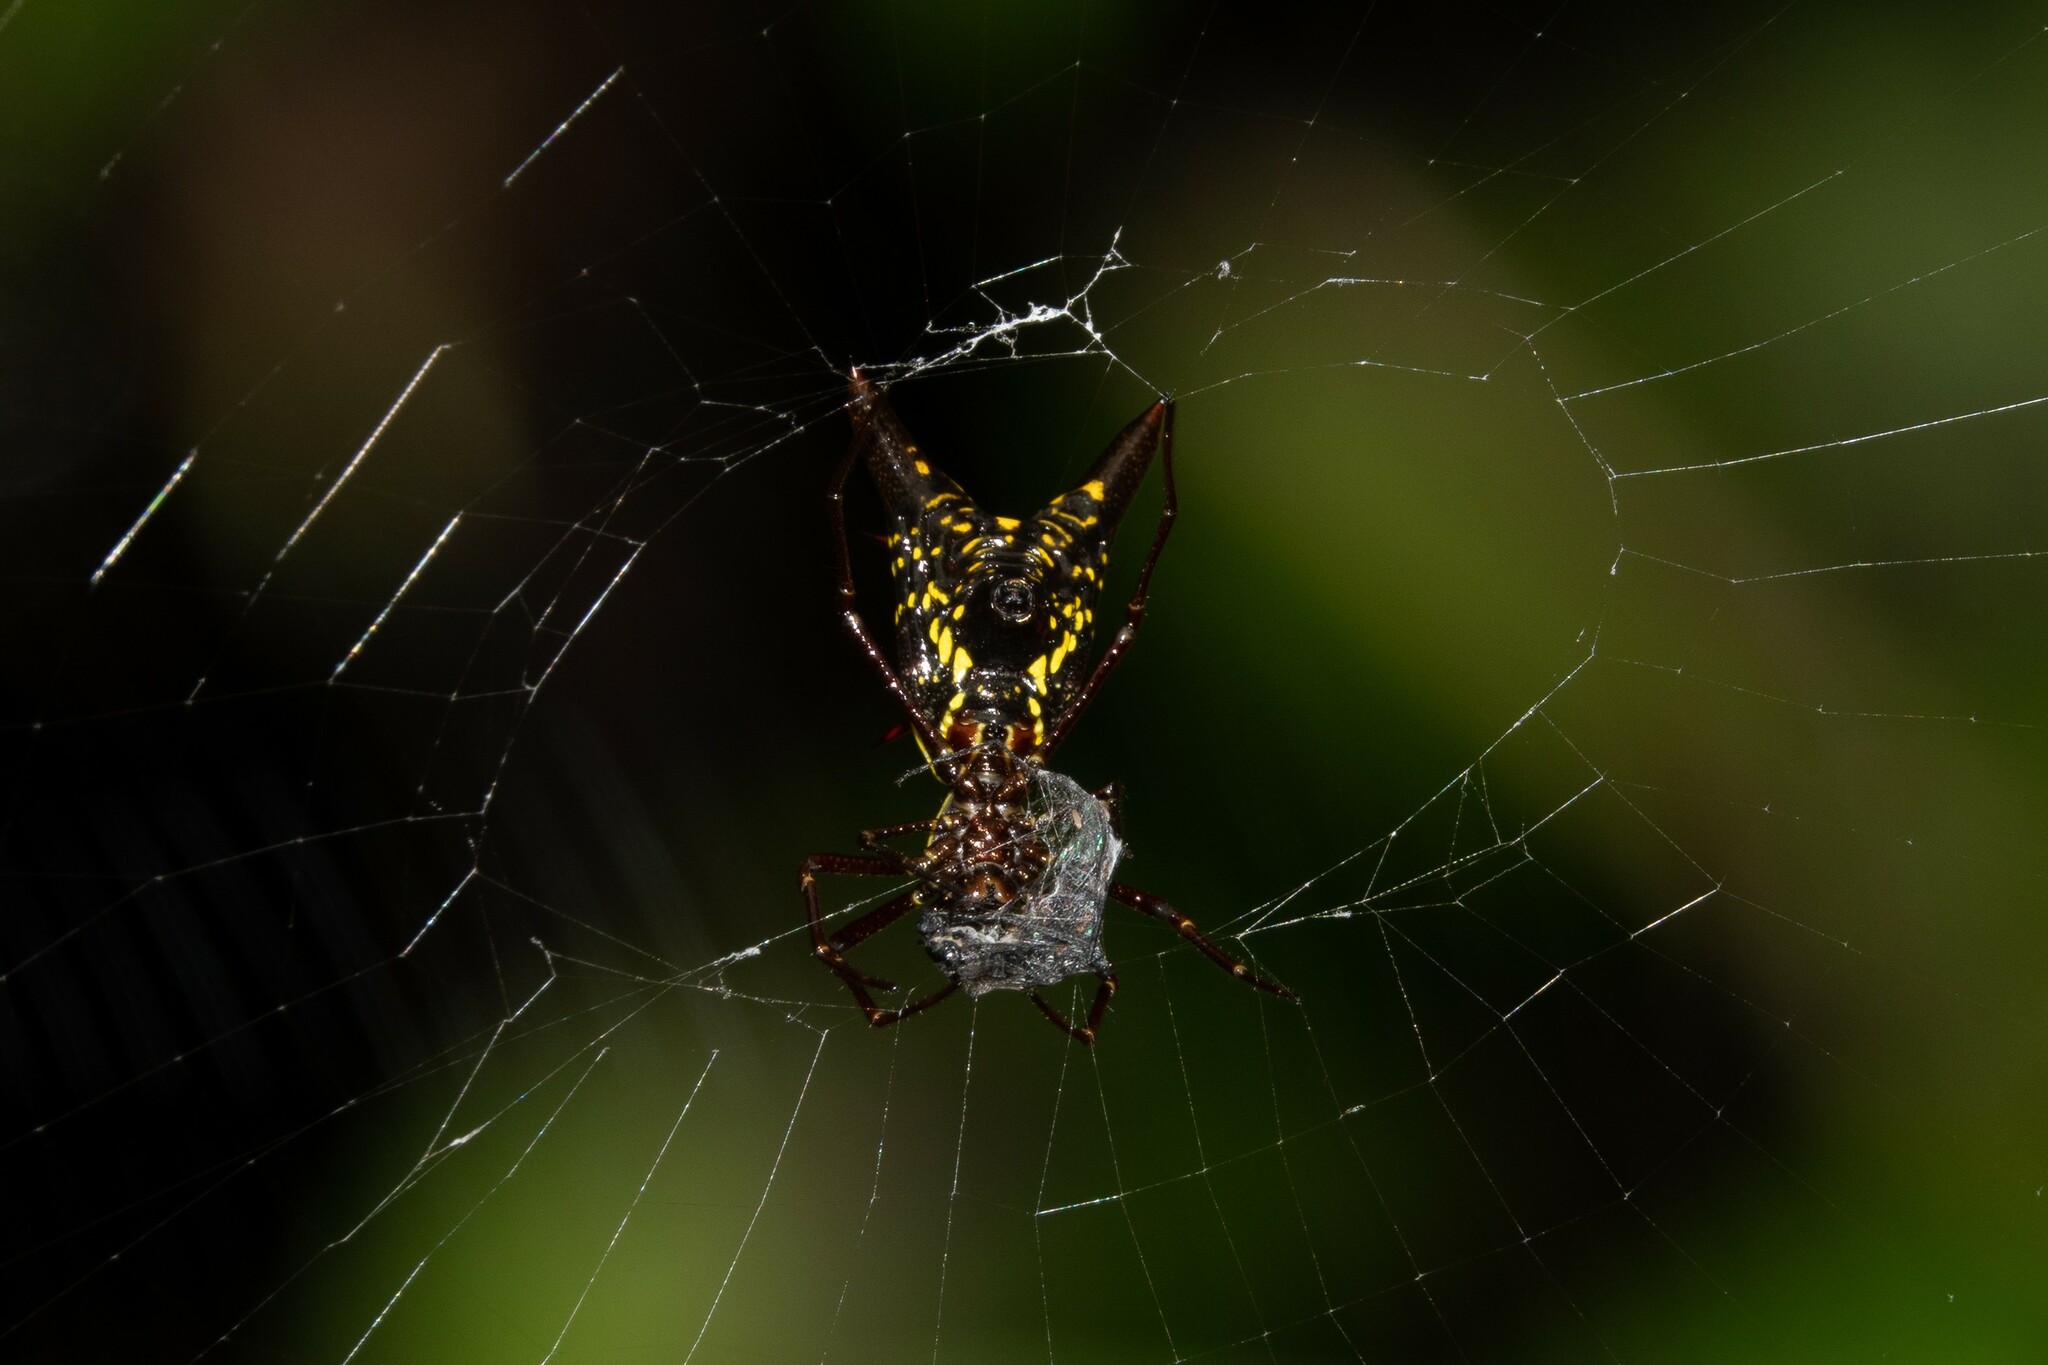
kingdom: Animalia
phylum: Arthropoda
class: Arachnida
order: Araneae
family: Araneidae
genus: Micrathena
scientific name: Micrathena pichincha
